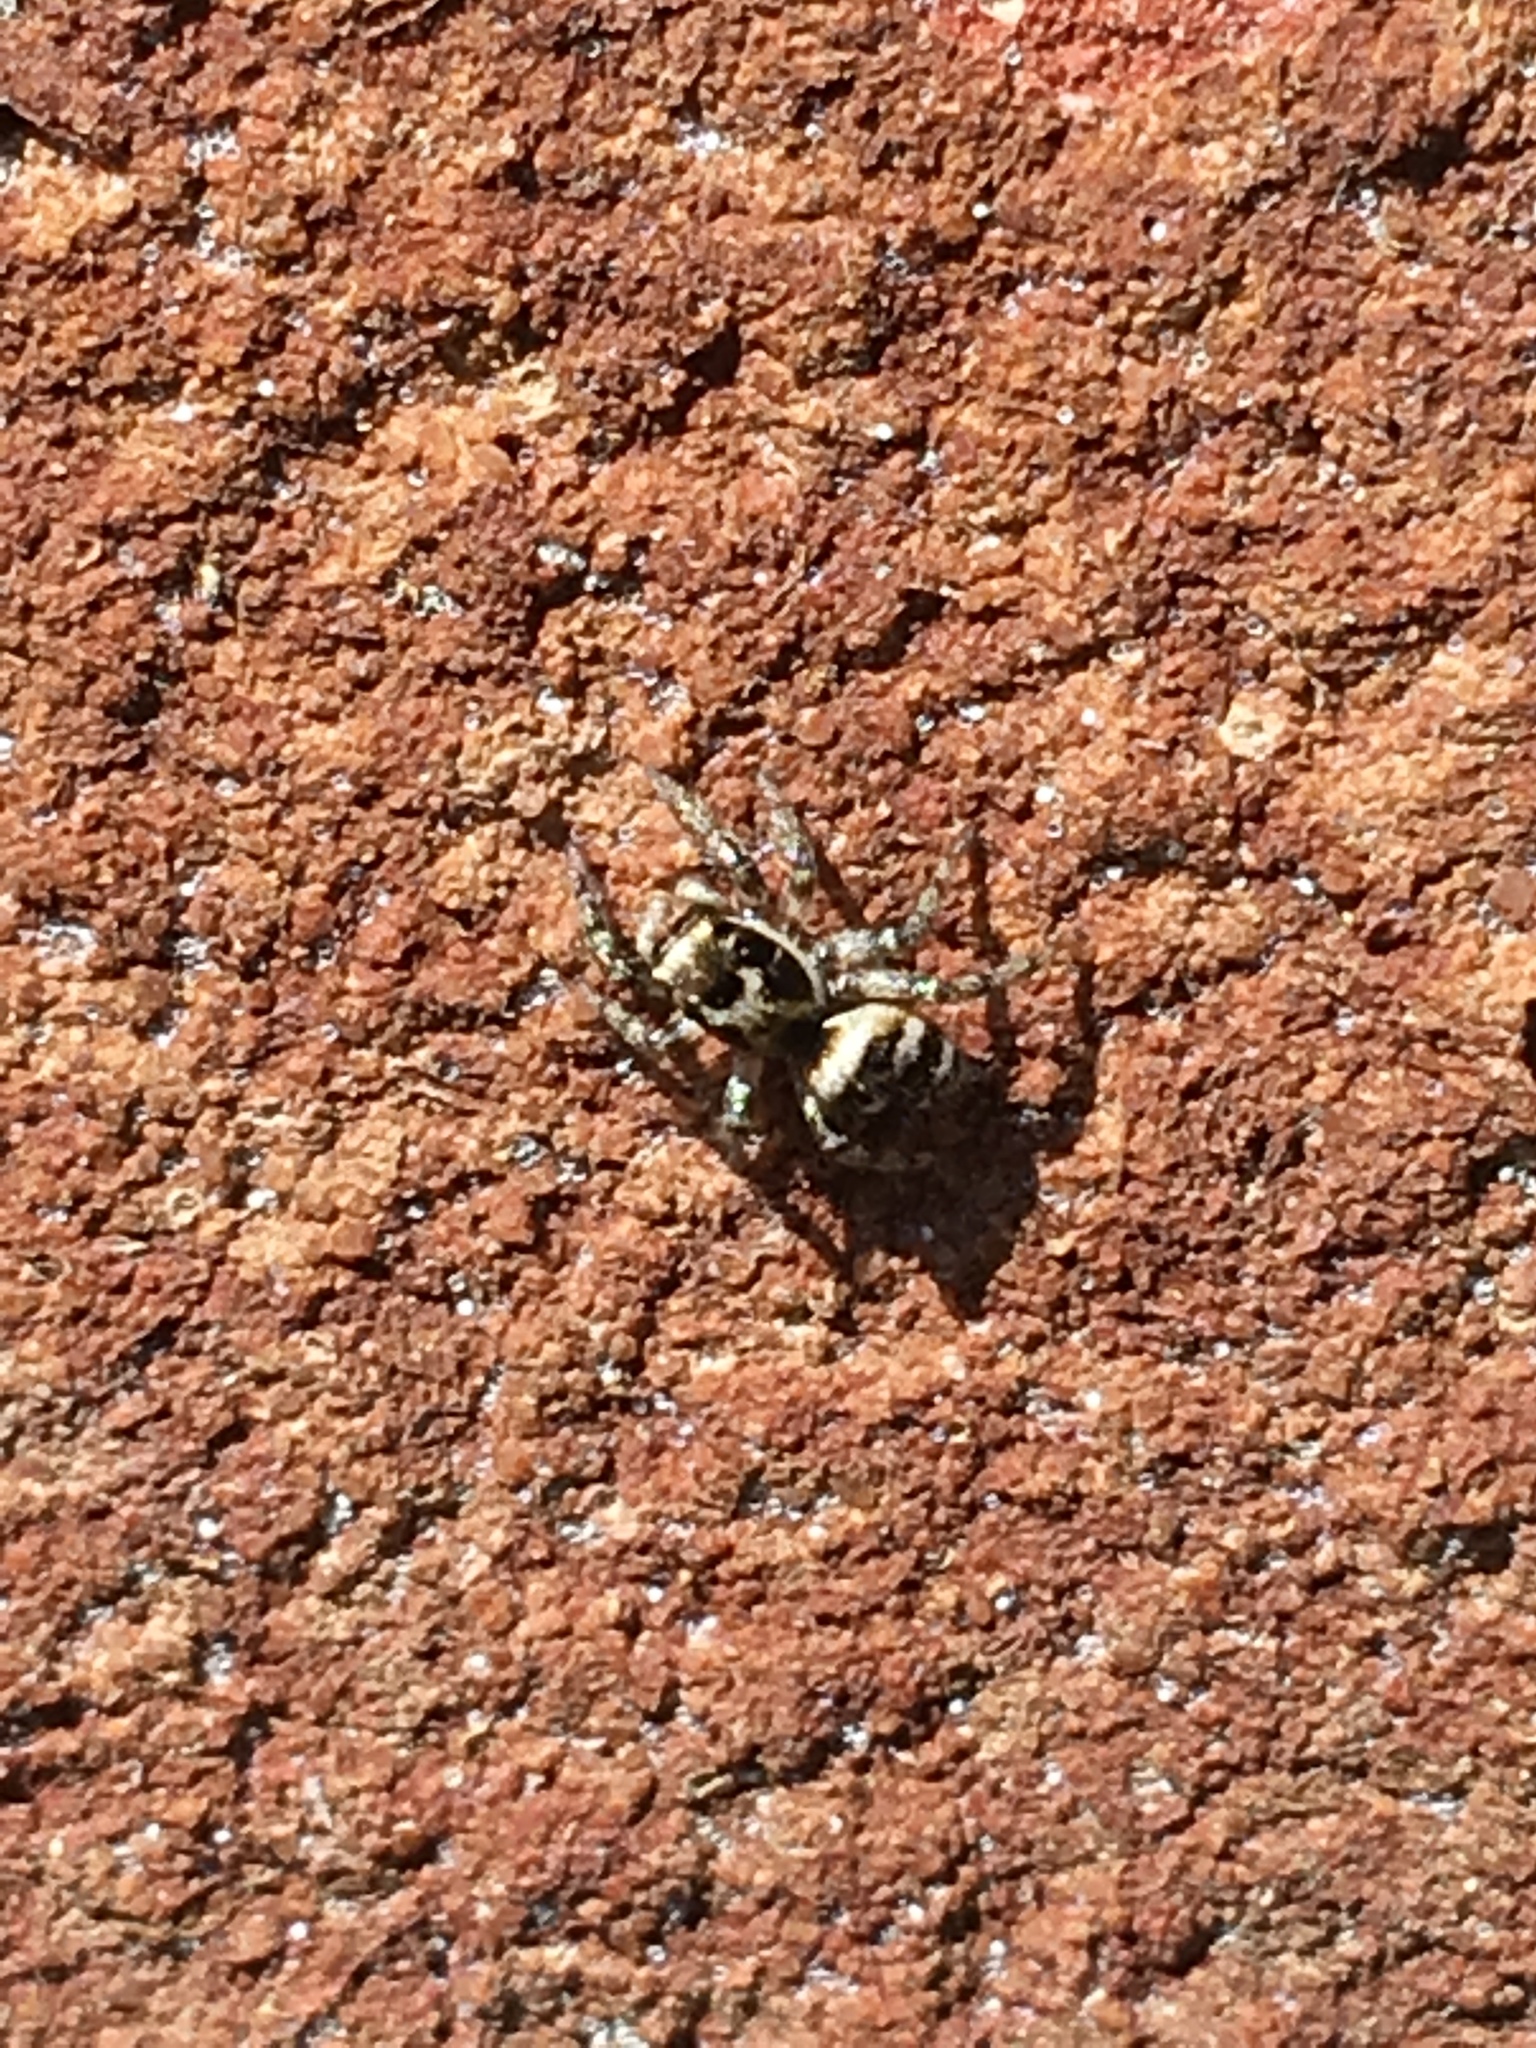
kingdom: Animalia
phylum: Arthropoda
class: Arachnida
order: Araneae
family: Salticidae
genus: Salticus
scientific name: Salticus scenicus
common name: Zebra jumper
